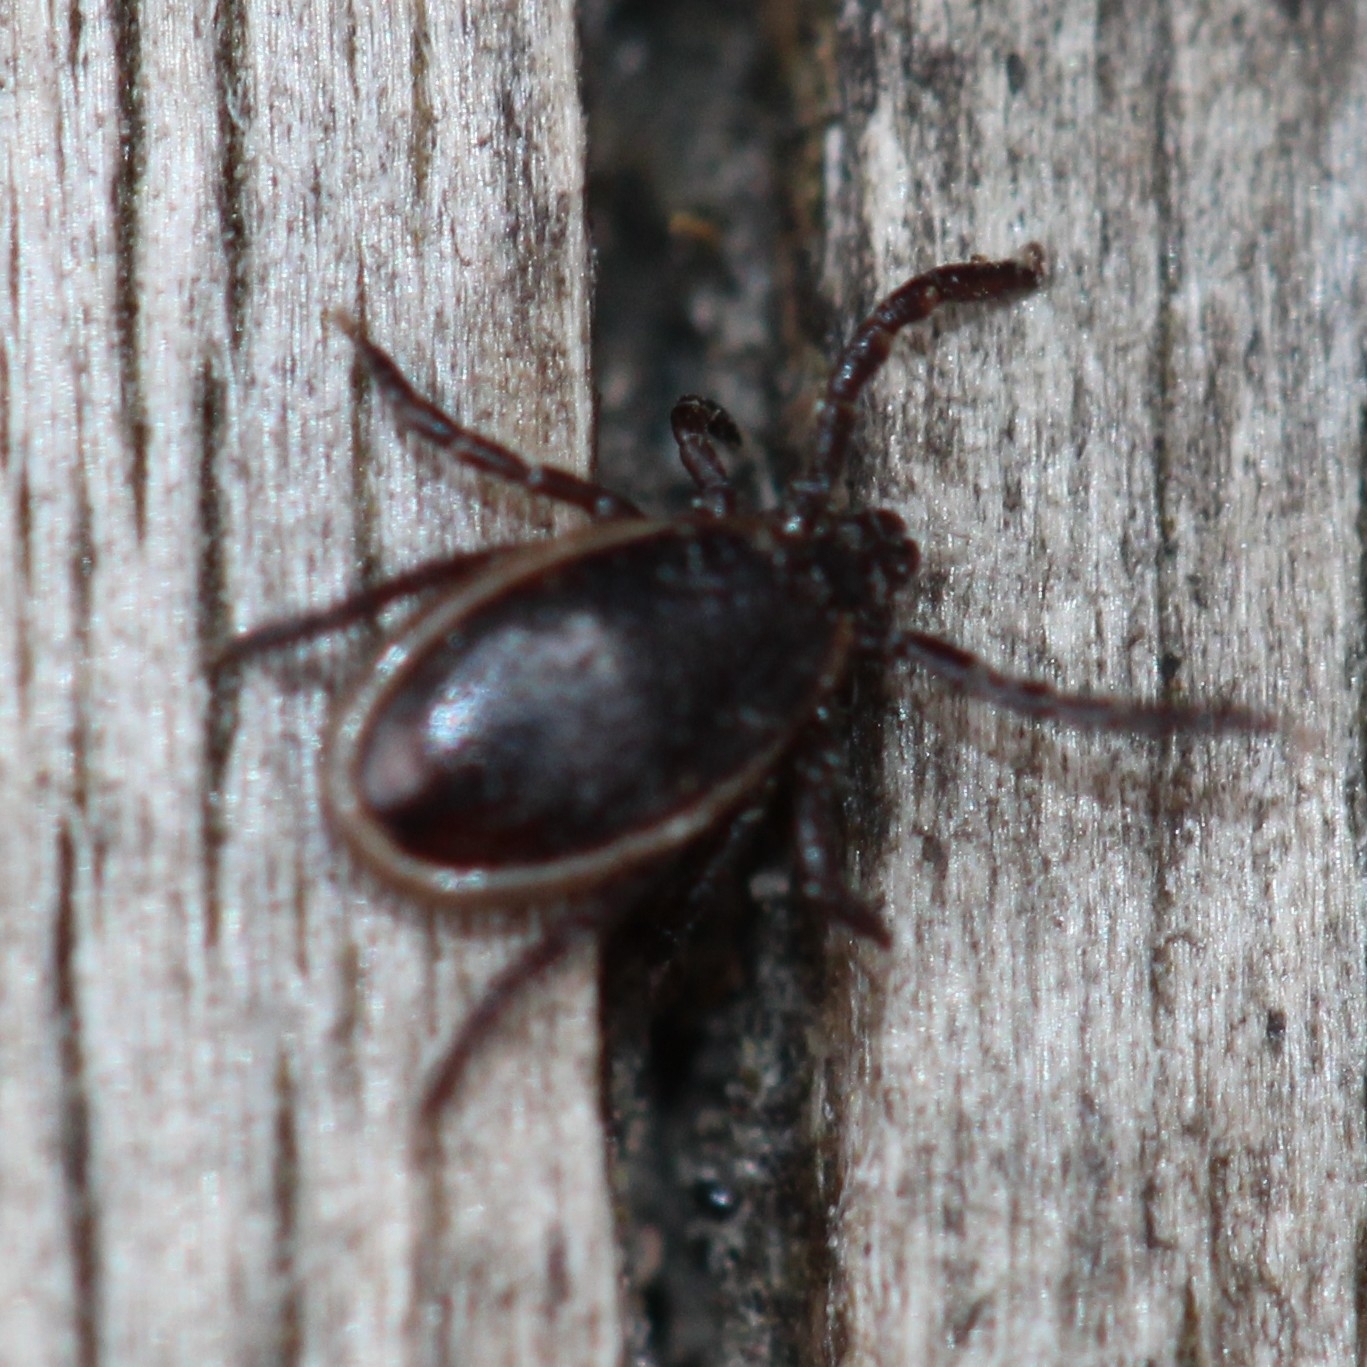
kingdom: Animalia
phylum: Arthropoda
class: Arachnida
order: Ixodida
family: Ixodidae
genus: Ixodes
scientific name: Ixodes scapularis
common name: Black legged tick
